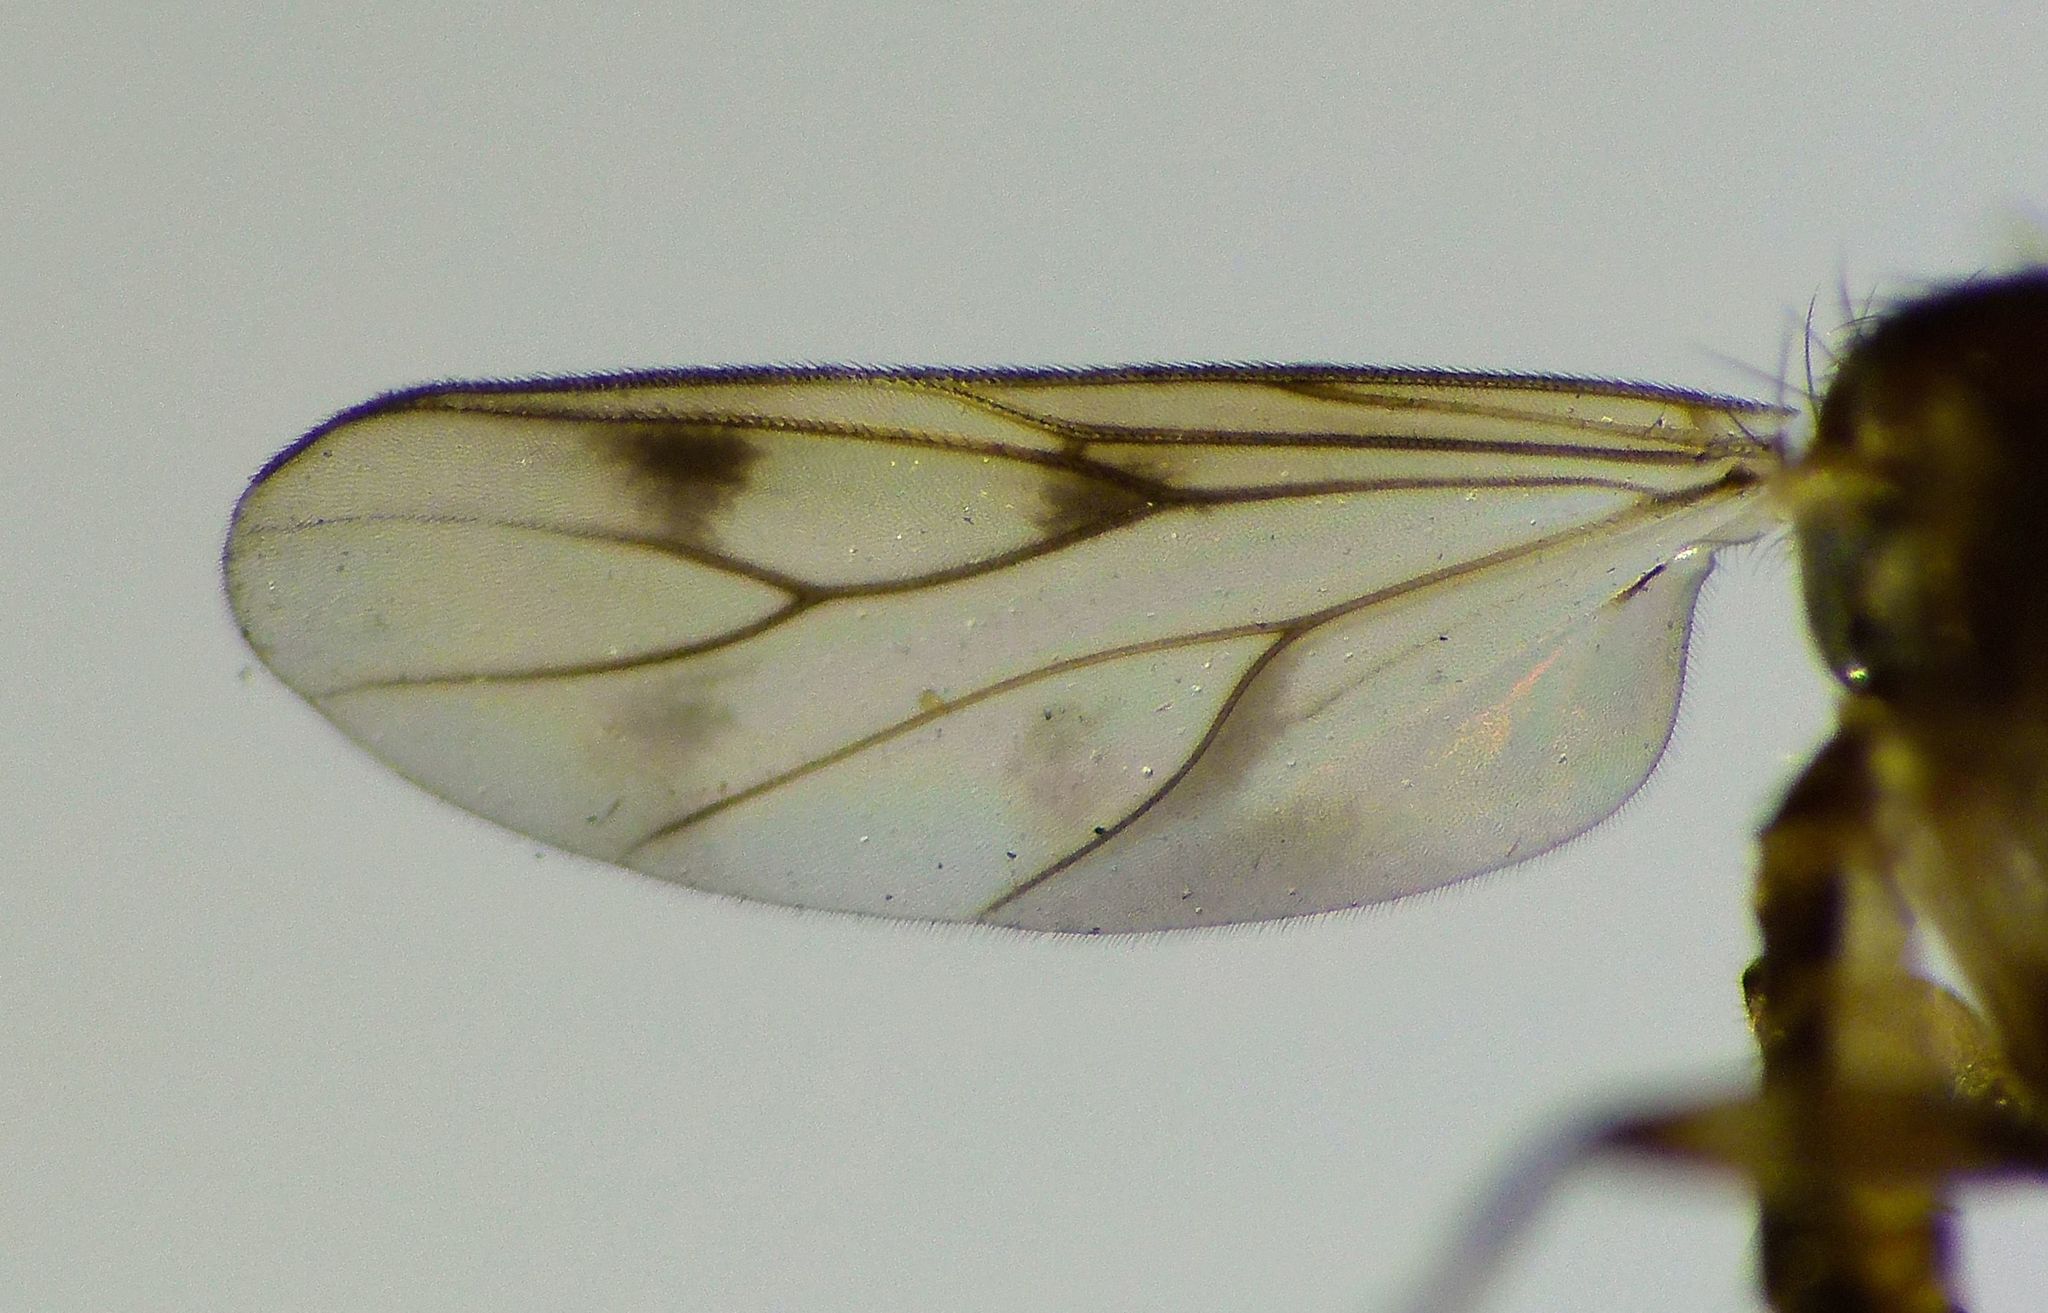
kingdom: Animalia
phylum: Arthropoda
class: Insecta
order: Diptera
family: Mycetophilidae
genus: Anomalomyia
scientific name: Anomalomyia guttata
